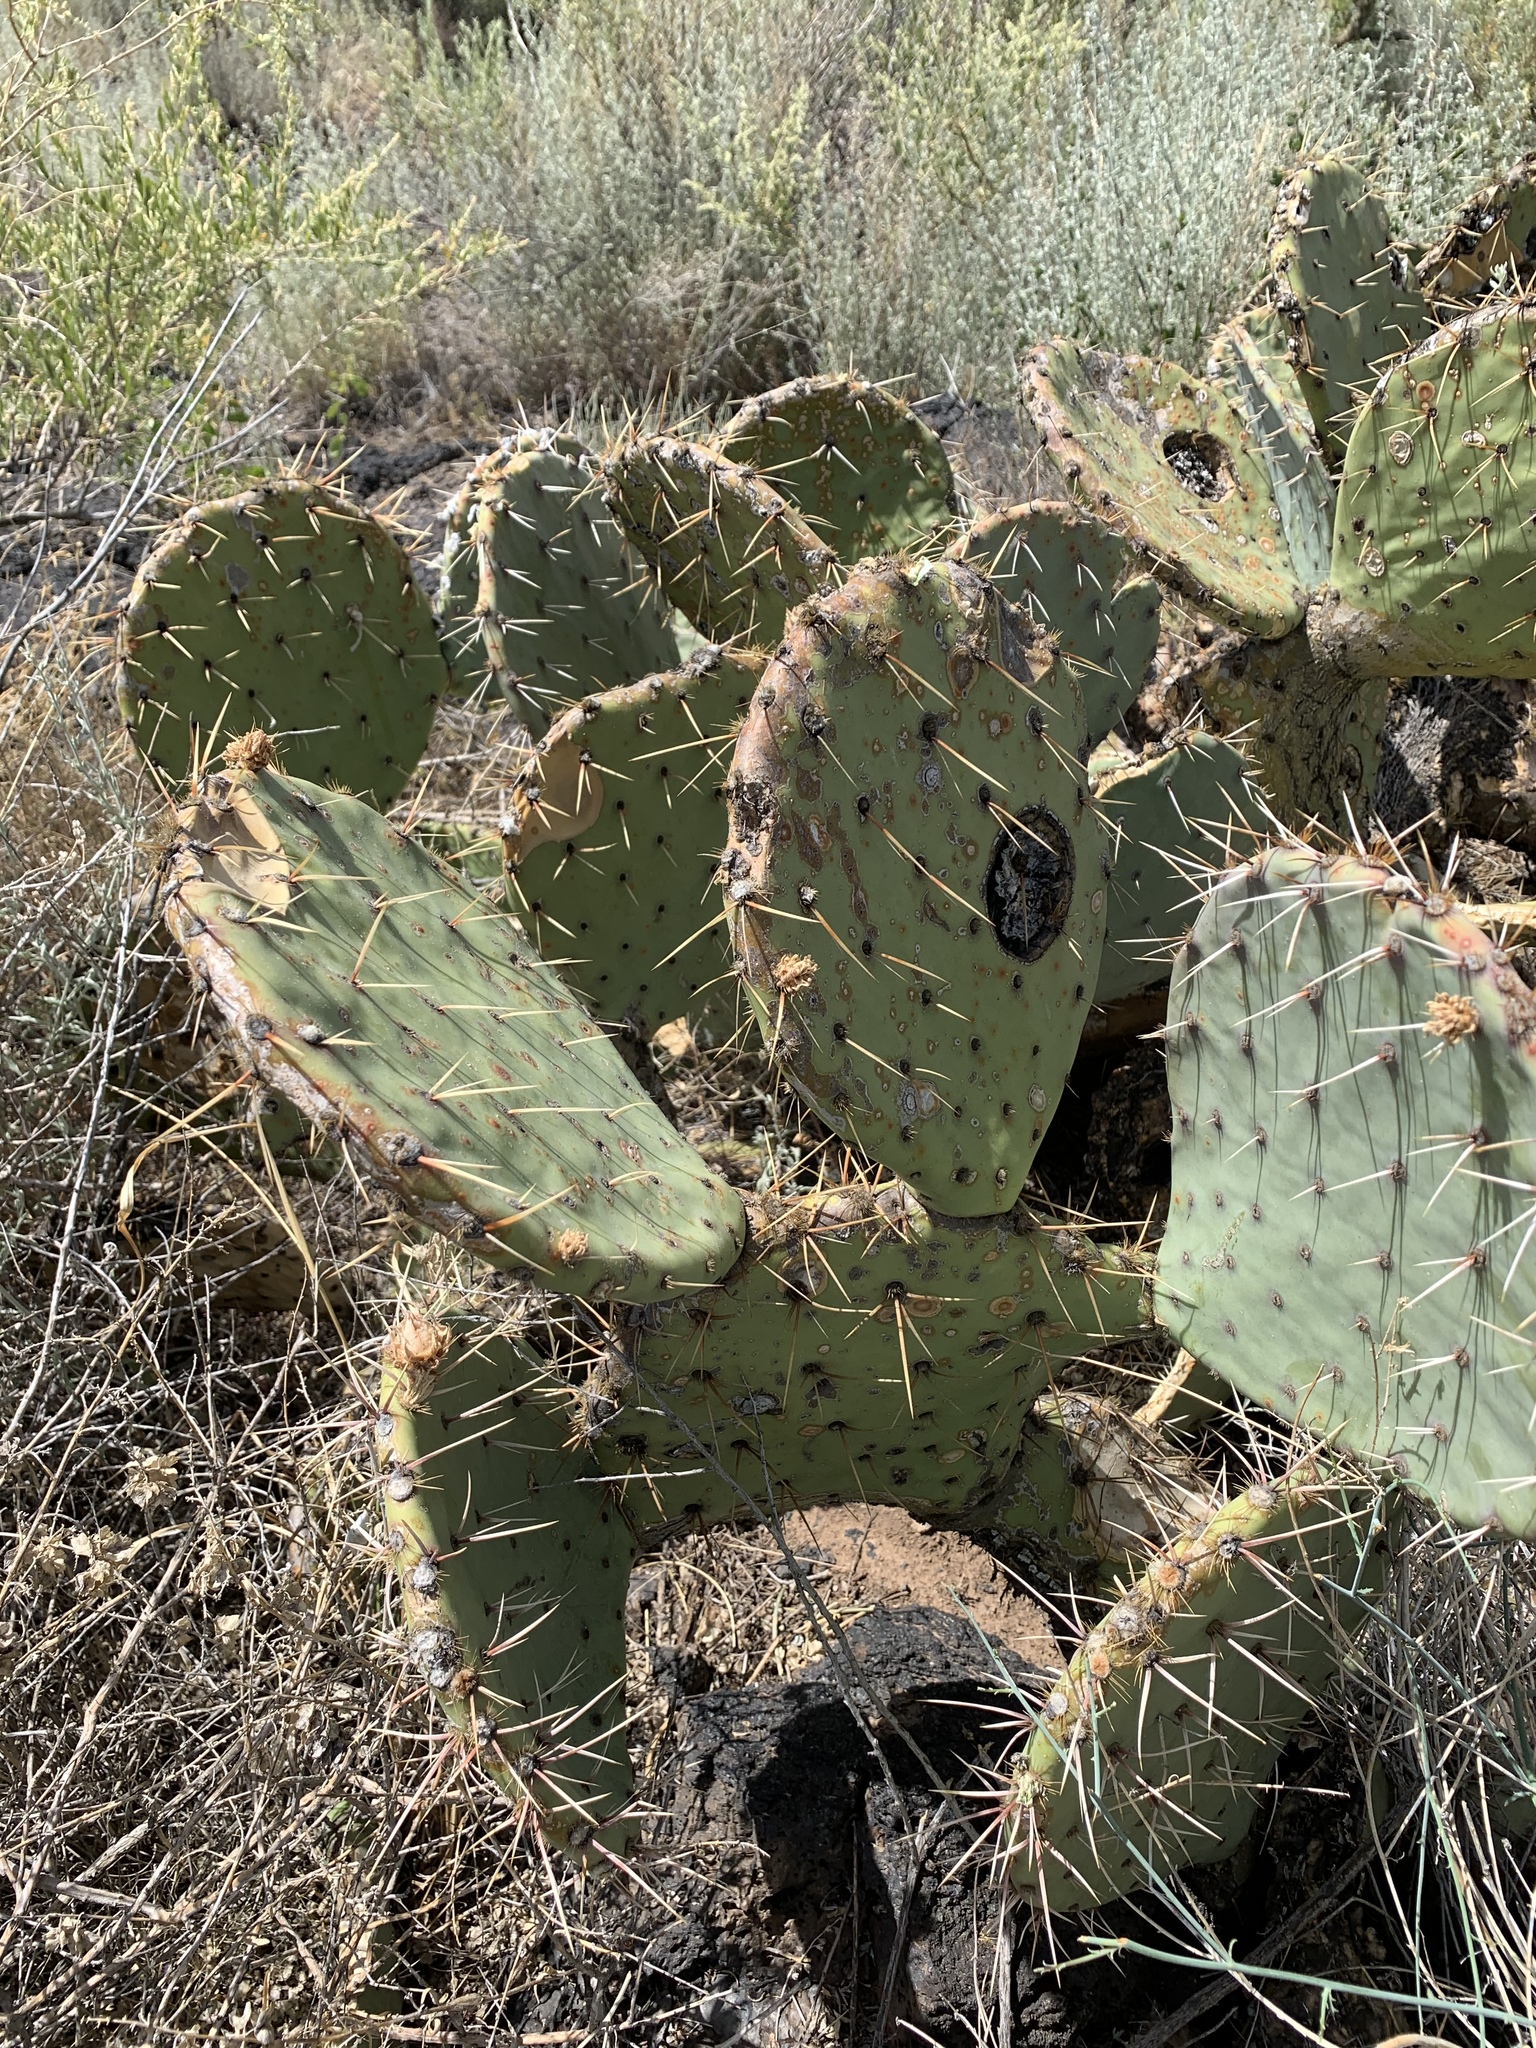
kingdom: Plantae
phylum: Tracheophyta
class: Magnoliopsida
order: Caryophyllales
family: Cactaceae
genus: Opuntia
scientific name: Opuntia engelmannii
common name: Cactus-apple
